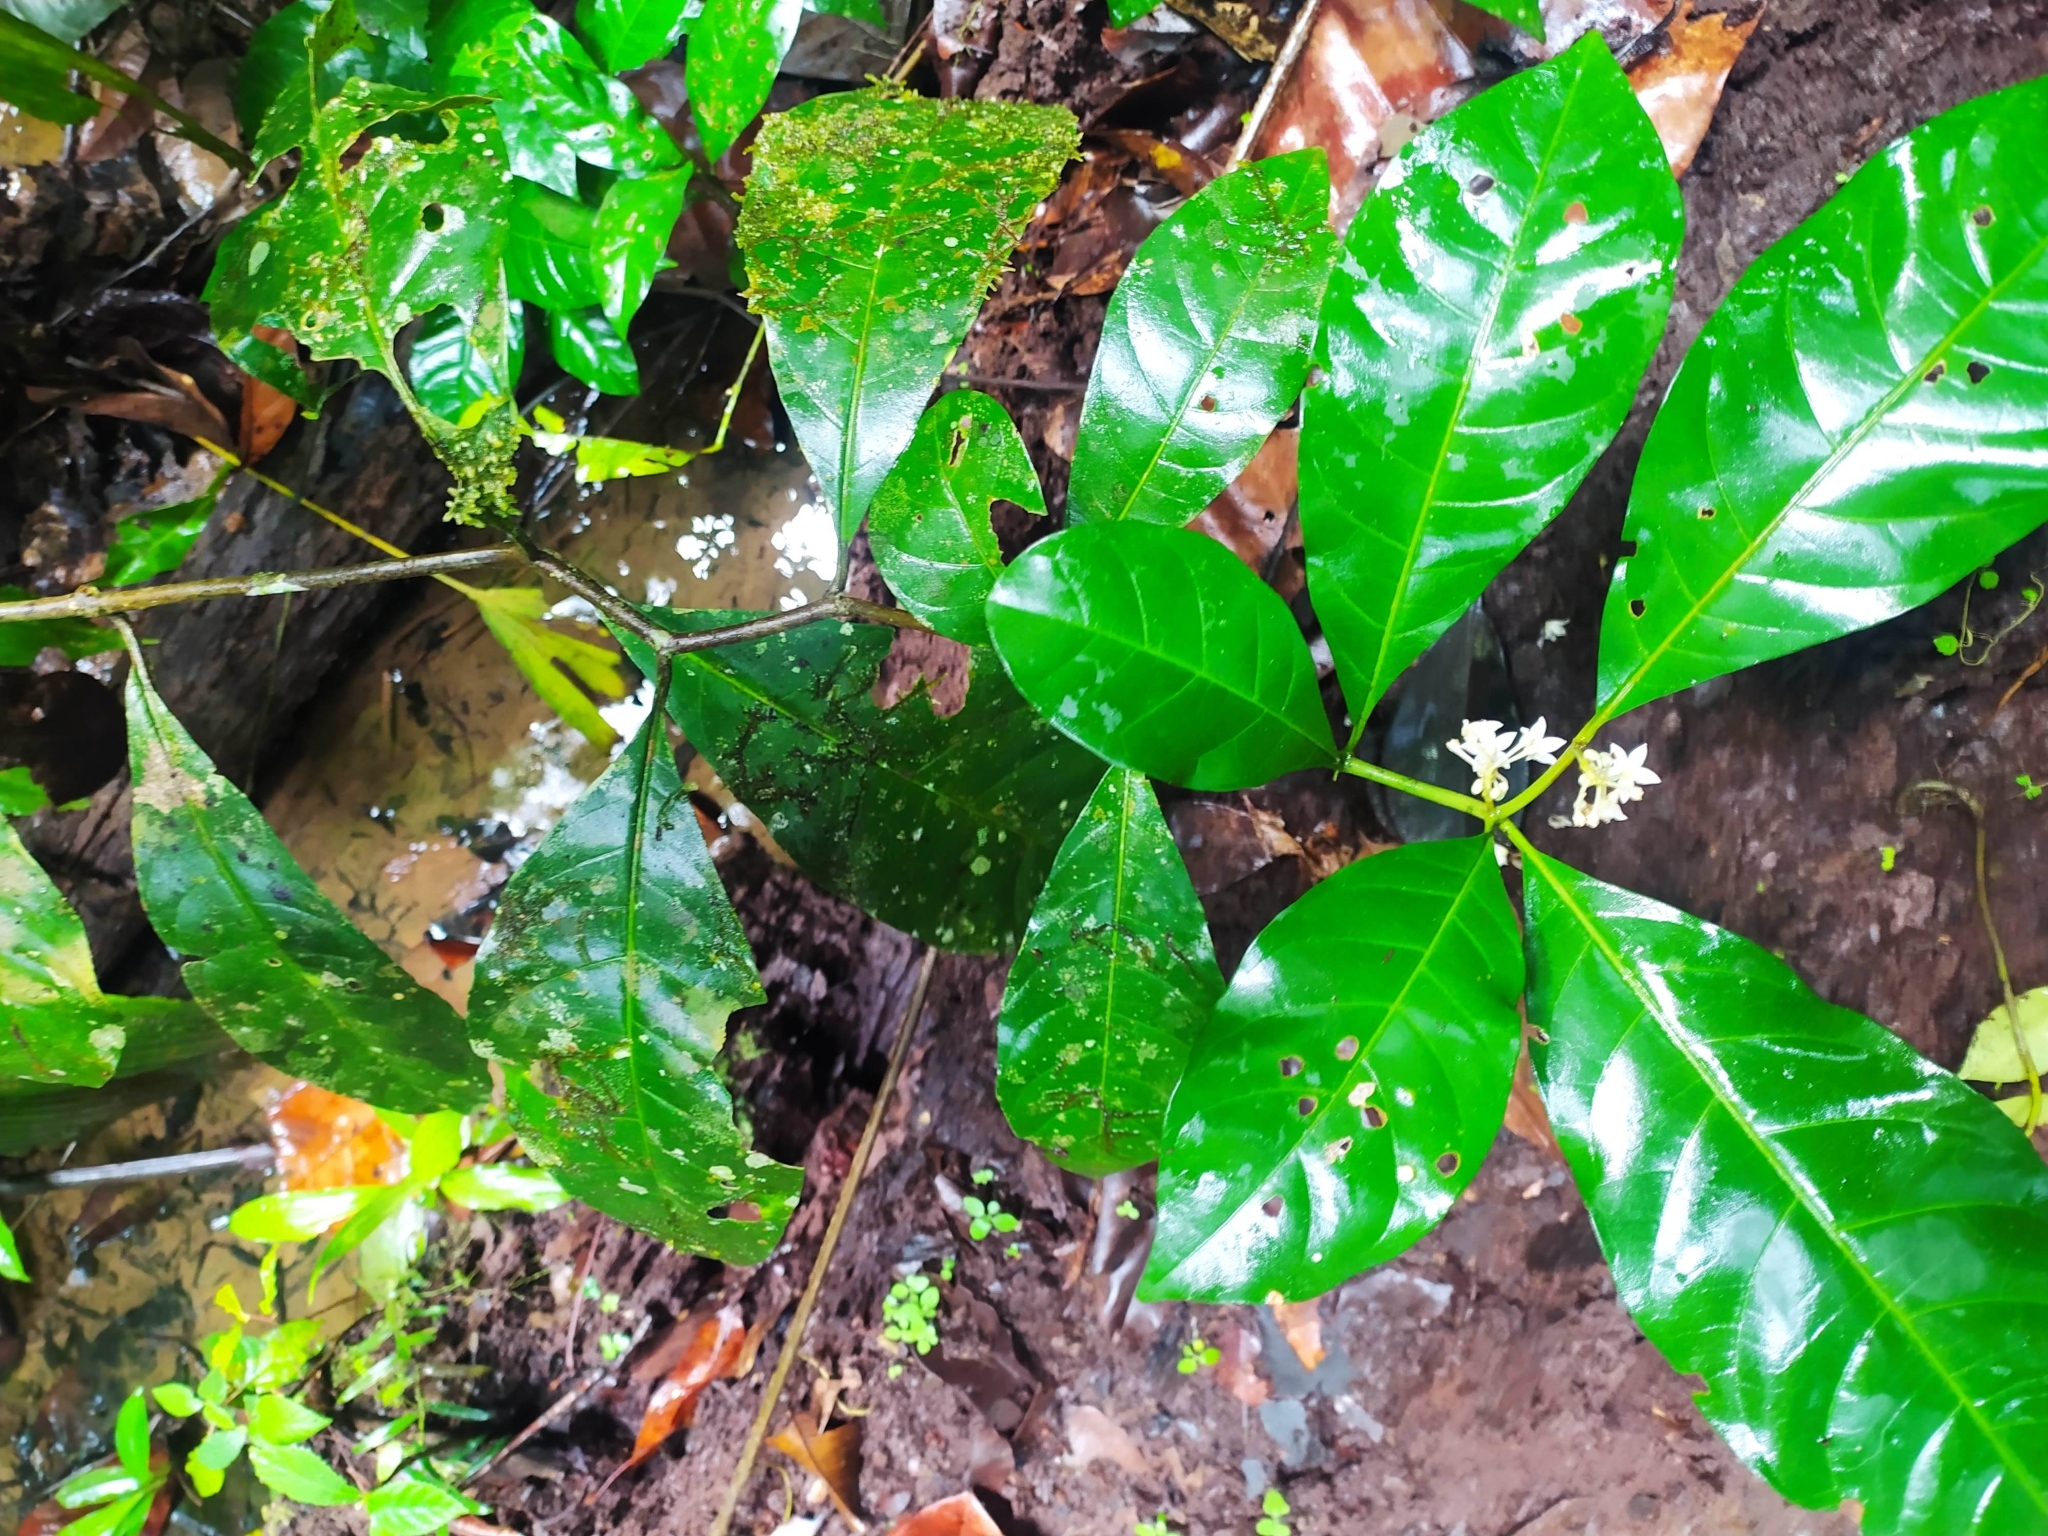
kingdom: Plantae
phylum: Tracheophyta
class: Magnoliopsida
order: Solanales
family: Solanaceae
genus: Solanum
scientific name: Solanum oppositifolium
